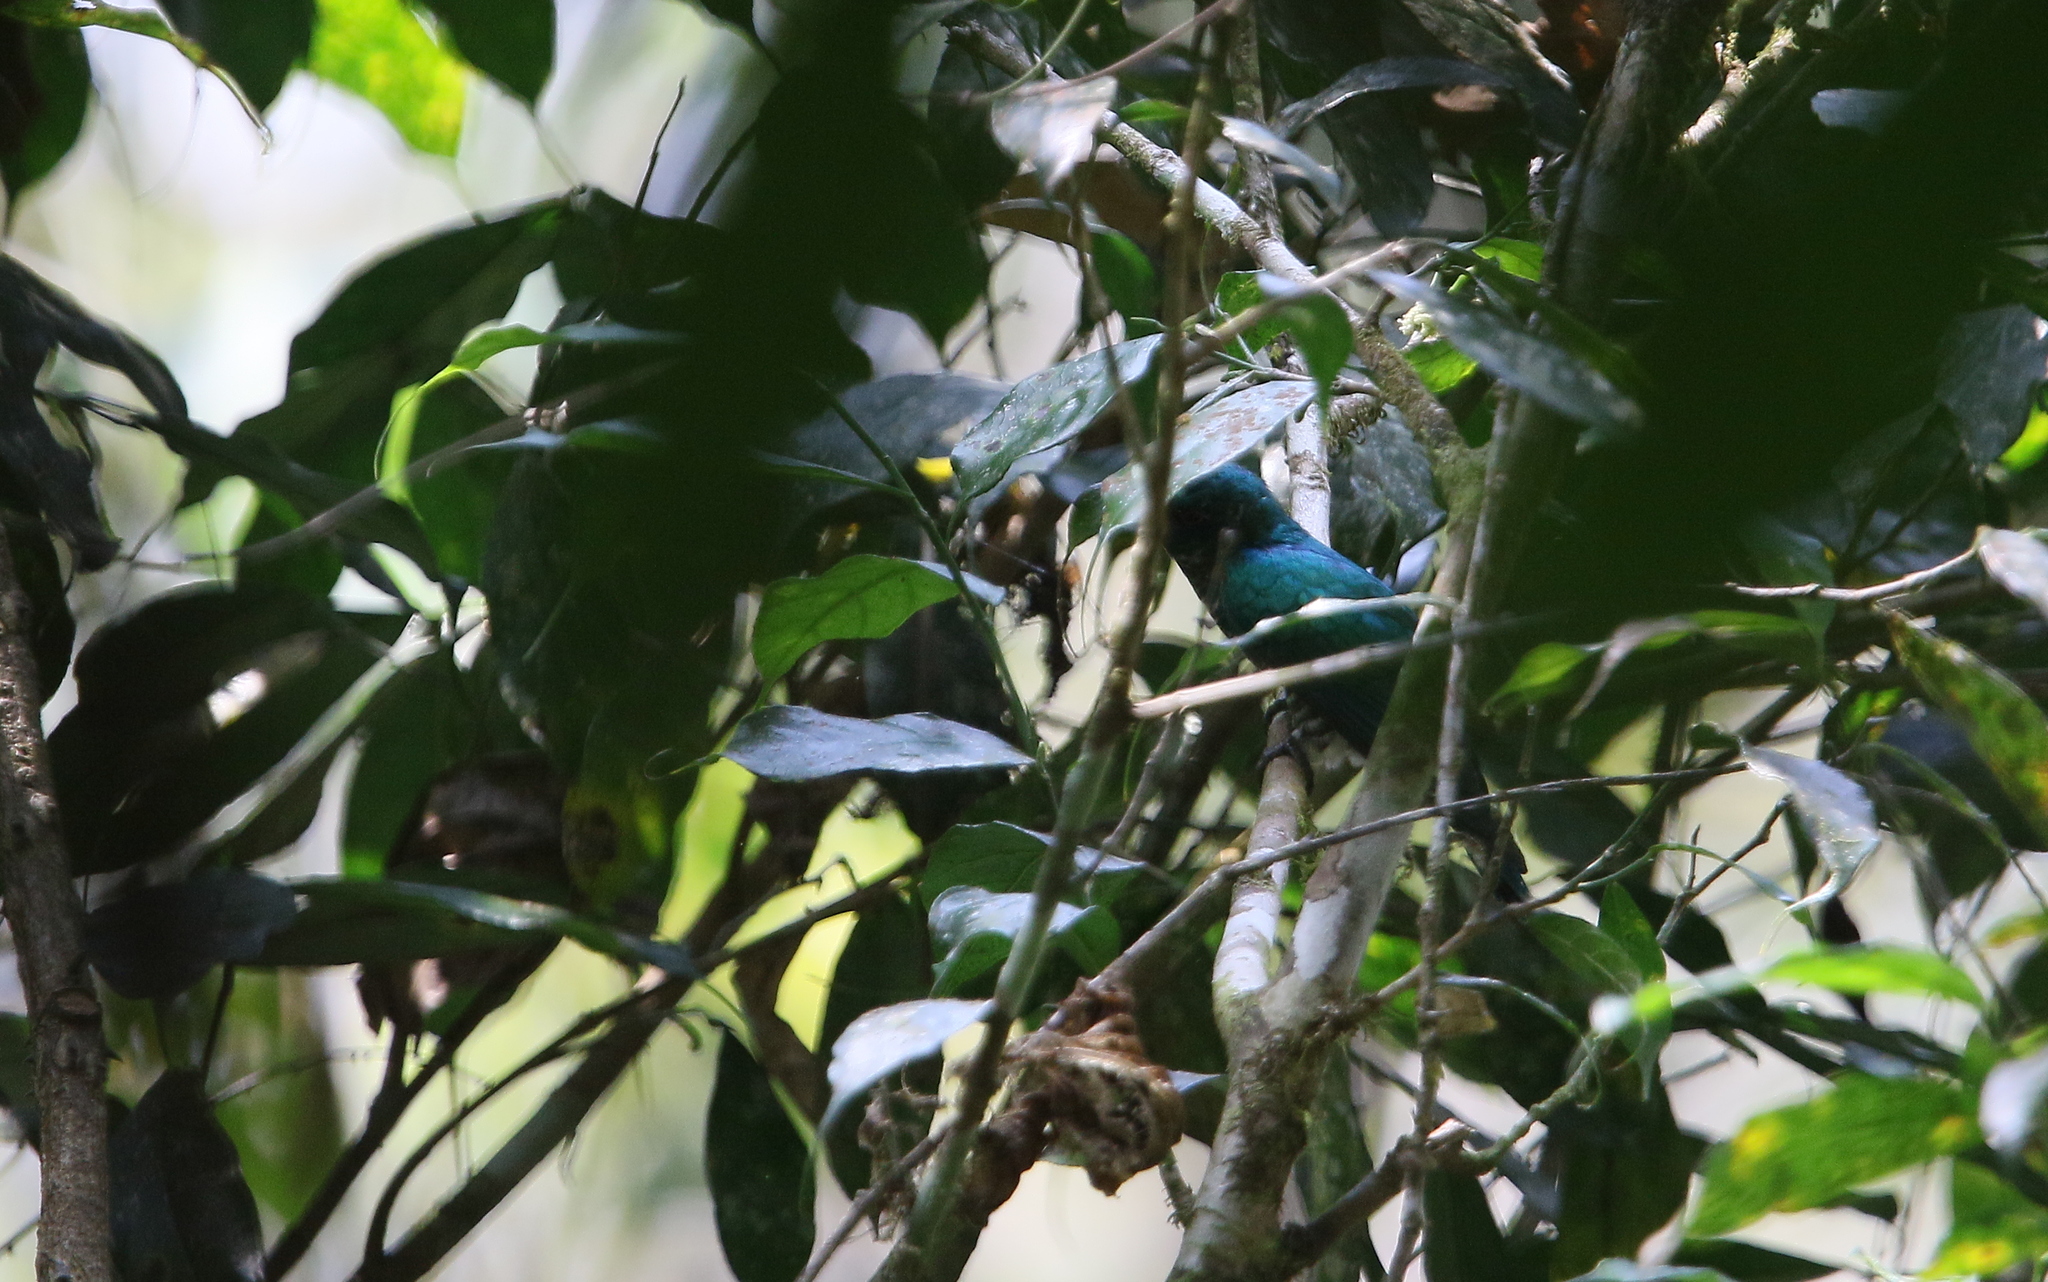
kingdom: Animalia
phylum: Chordata
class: Aves
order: Cuculiformes
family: Cuculidae
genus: Chrysococcyx
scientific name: Chrysococcyx maculatus
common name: Asian emerald cuckoo
